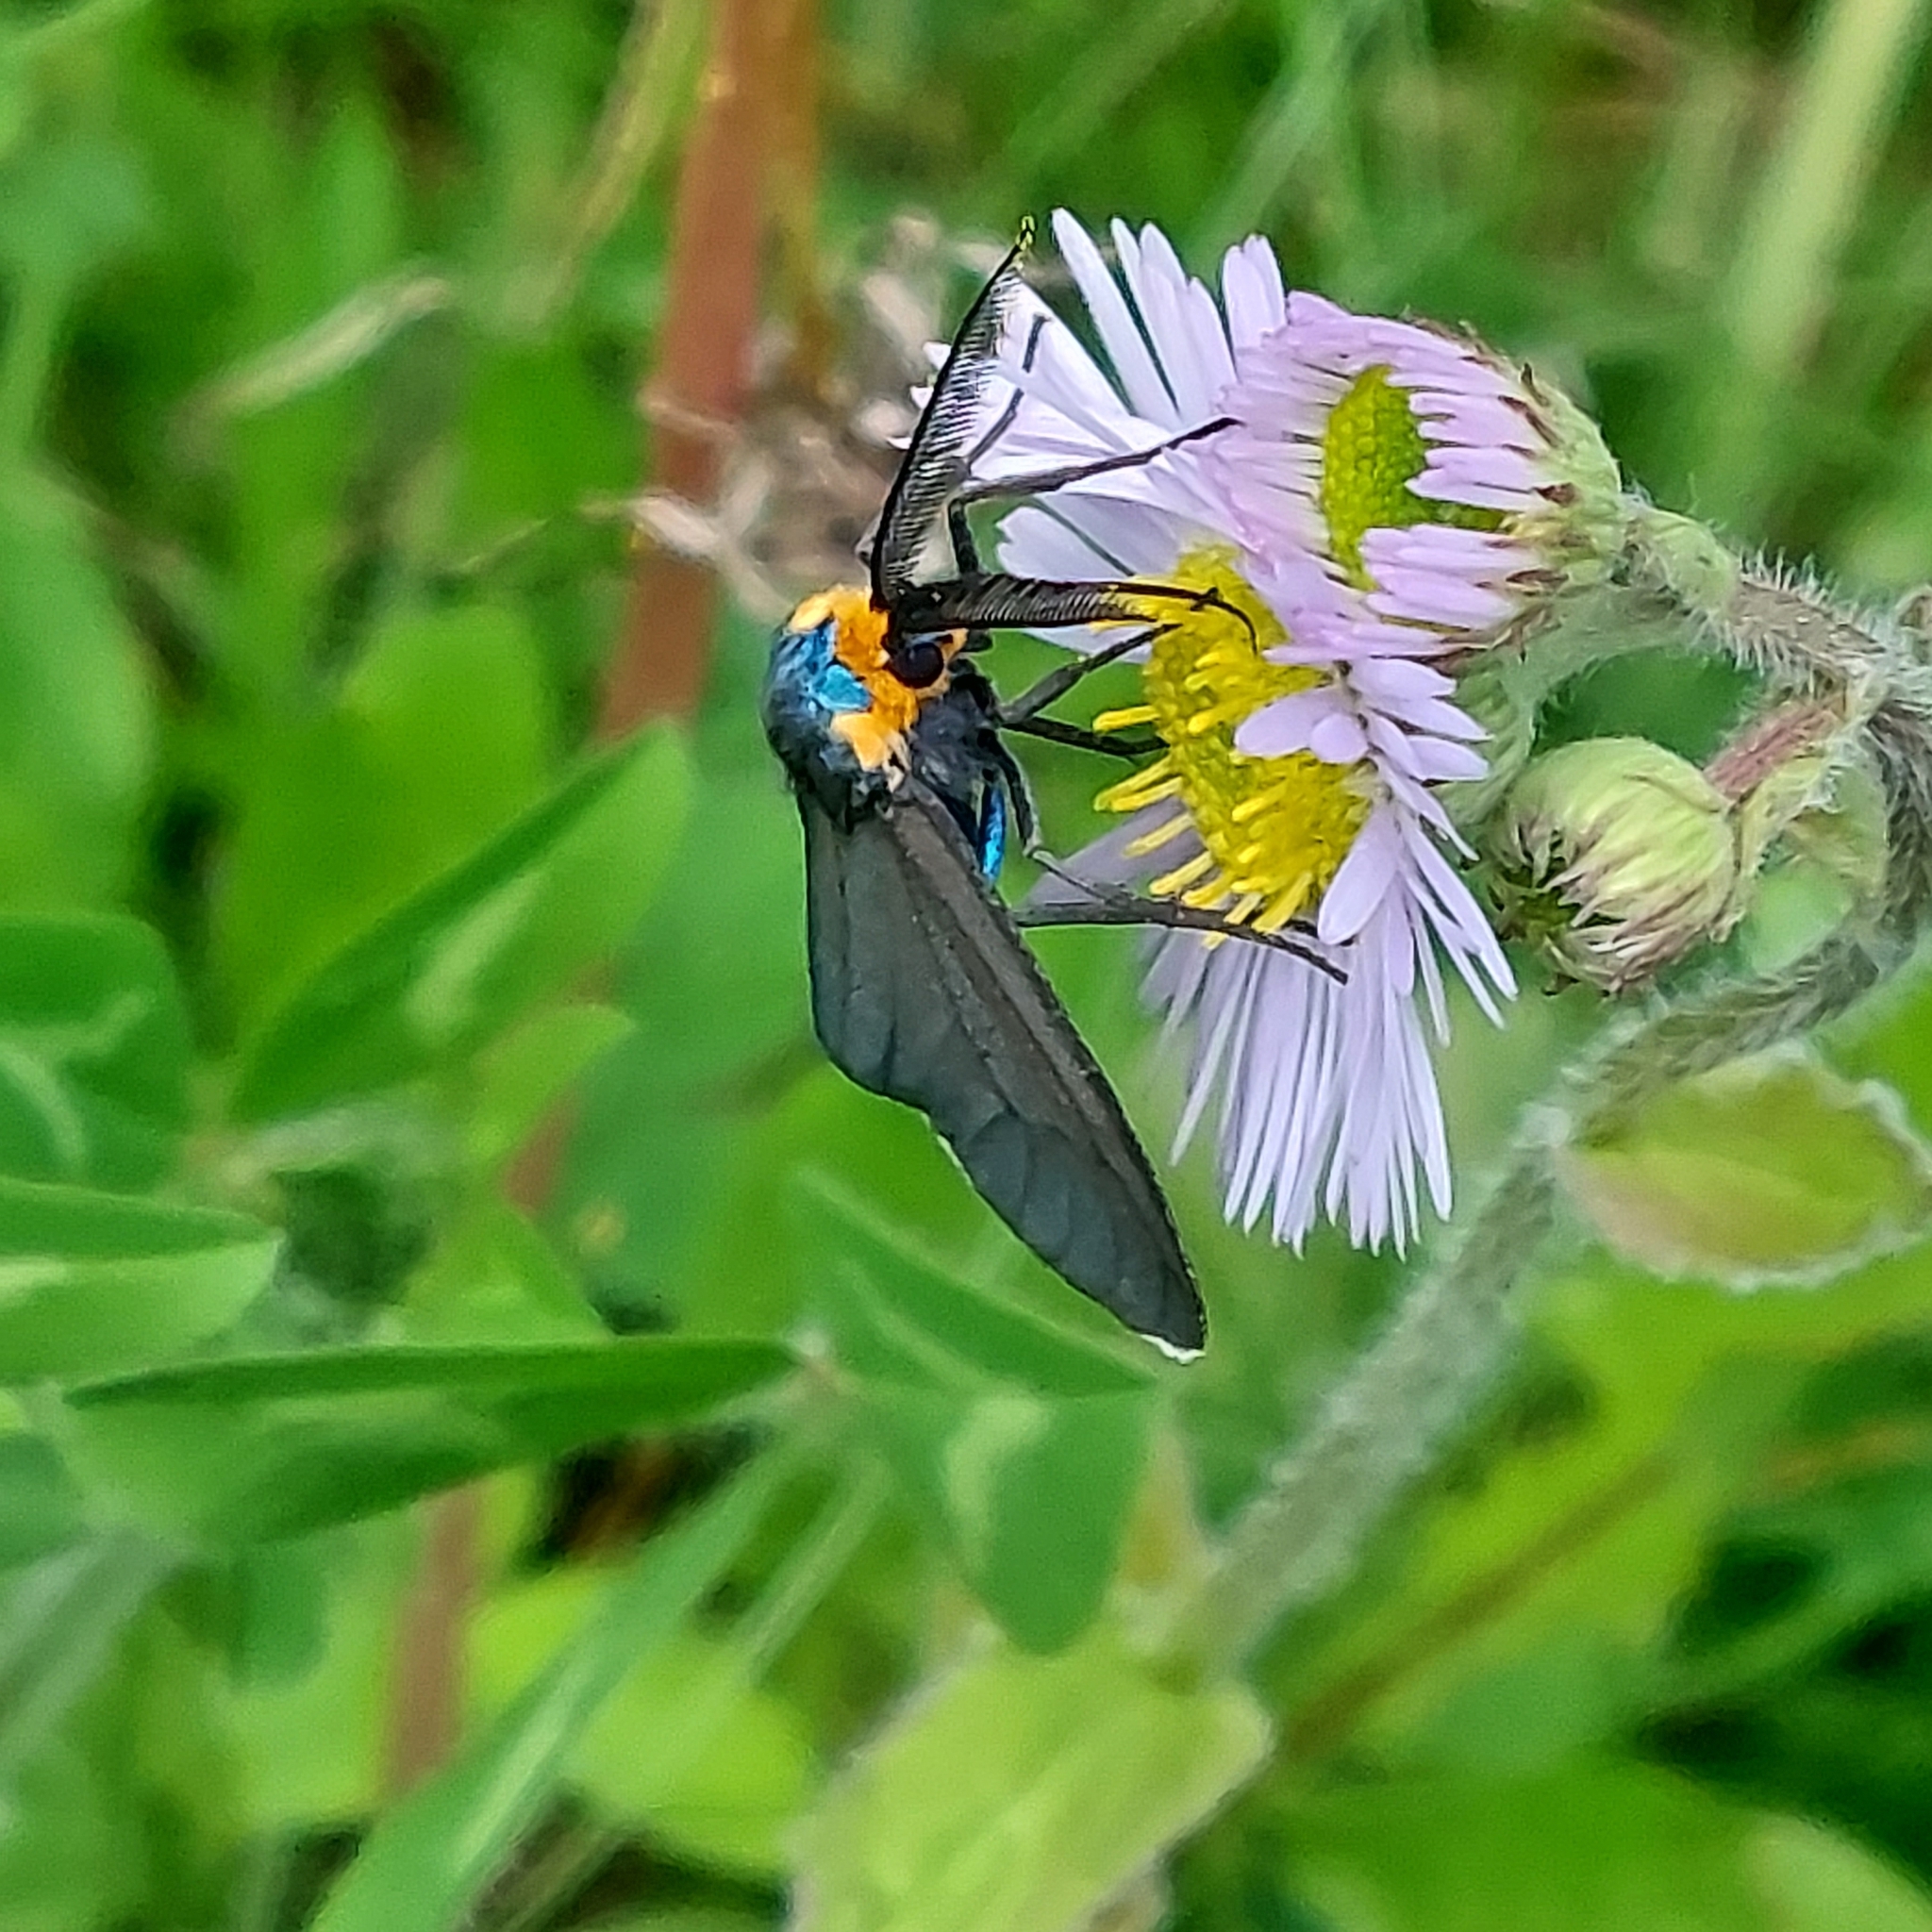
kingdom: Animalia
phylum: Arthropoda
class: Insecta
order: Lepidoptera
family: Erebidae
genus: Ctenucha
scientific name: Ctenucha virginica
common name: Virginia ctenucha moth
